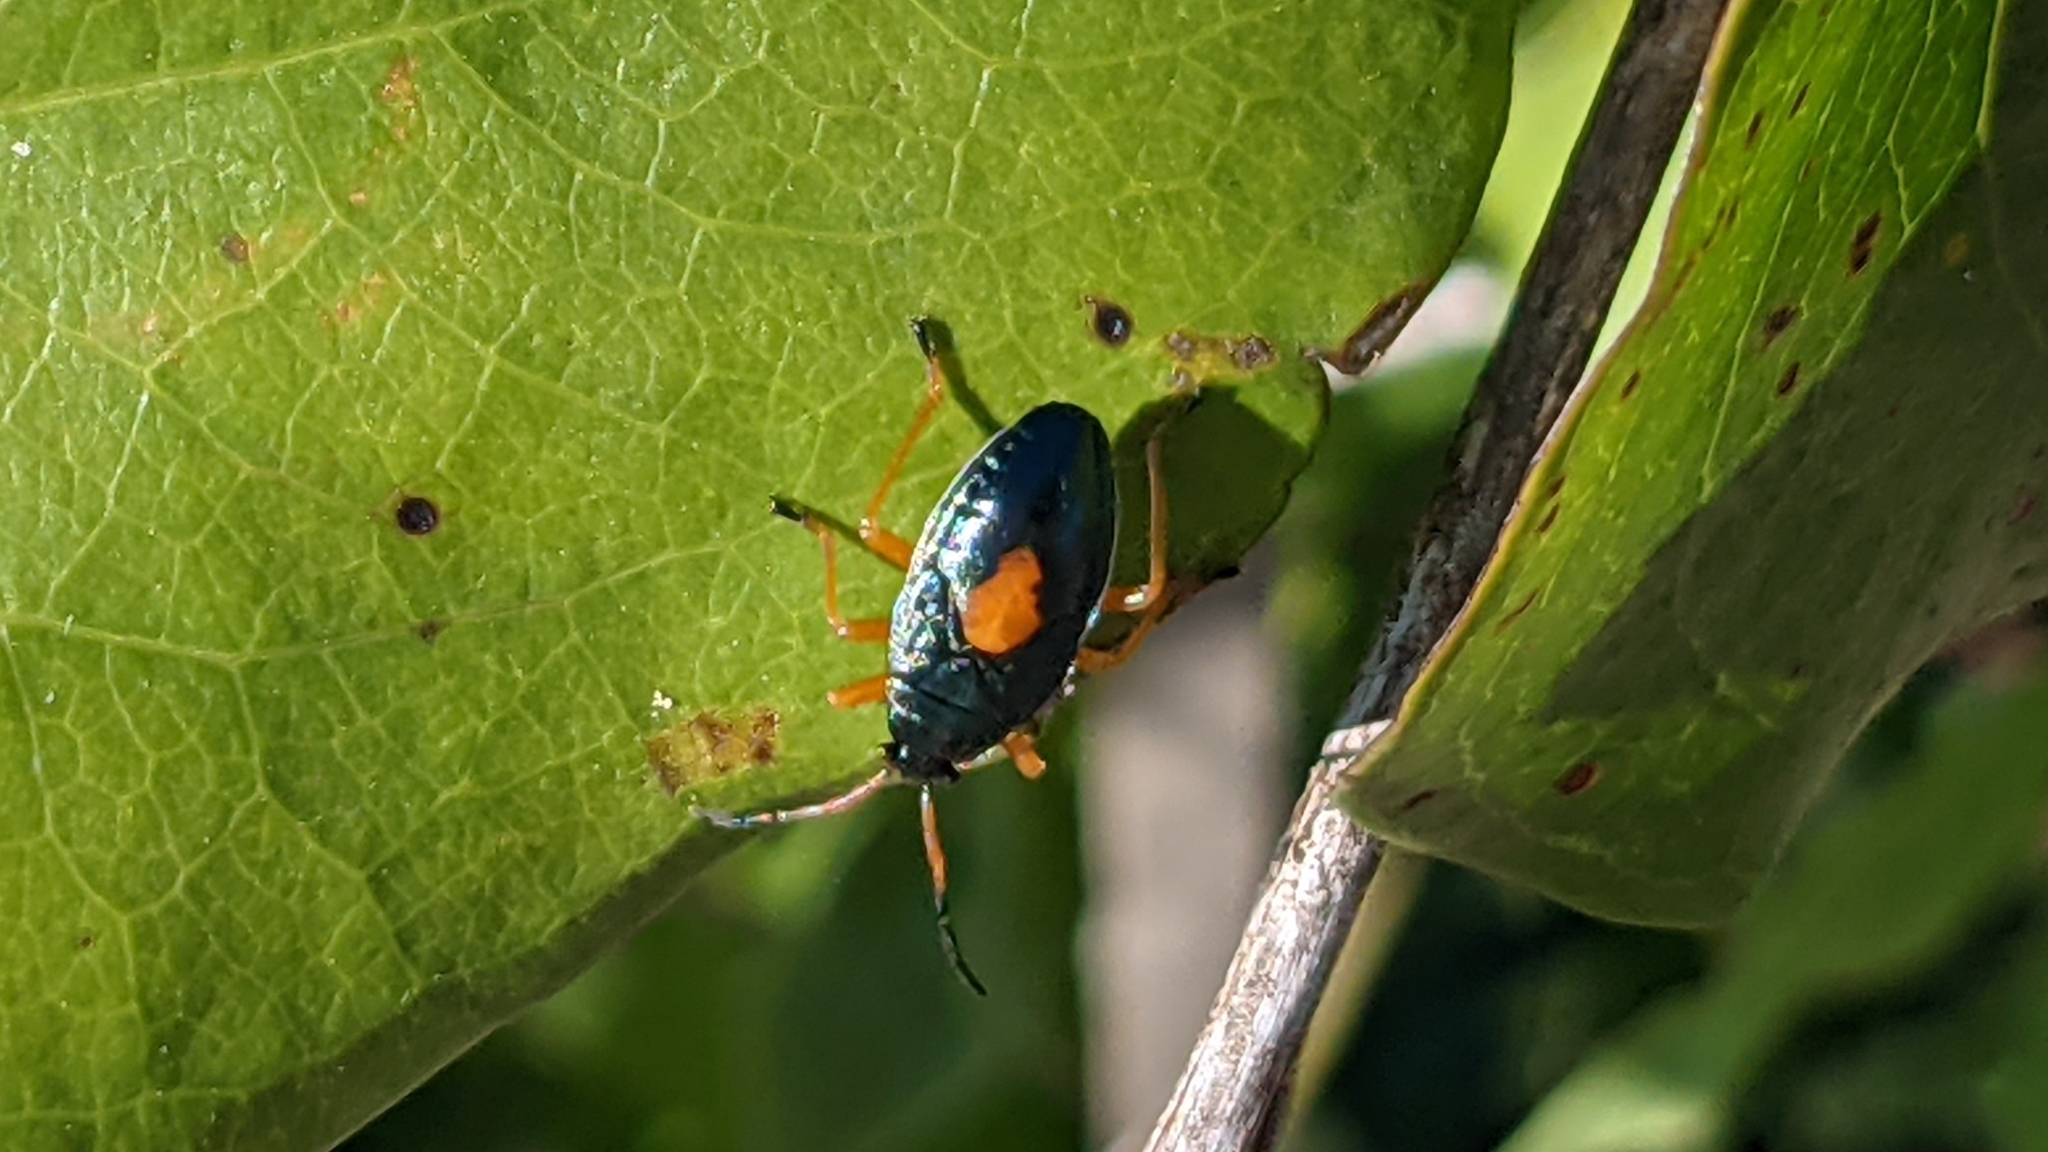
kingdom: Animalia
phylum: Arthropoda
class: Insecta
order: Hemiptera
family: Largidae
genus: Largus
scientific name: Largus succinctus
